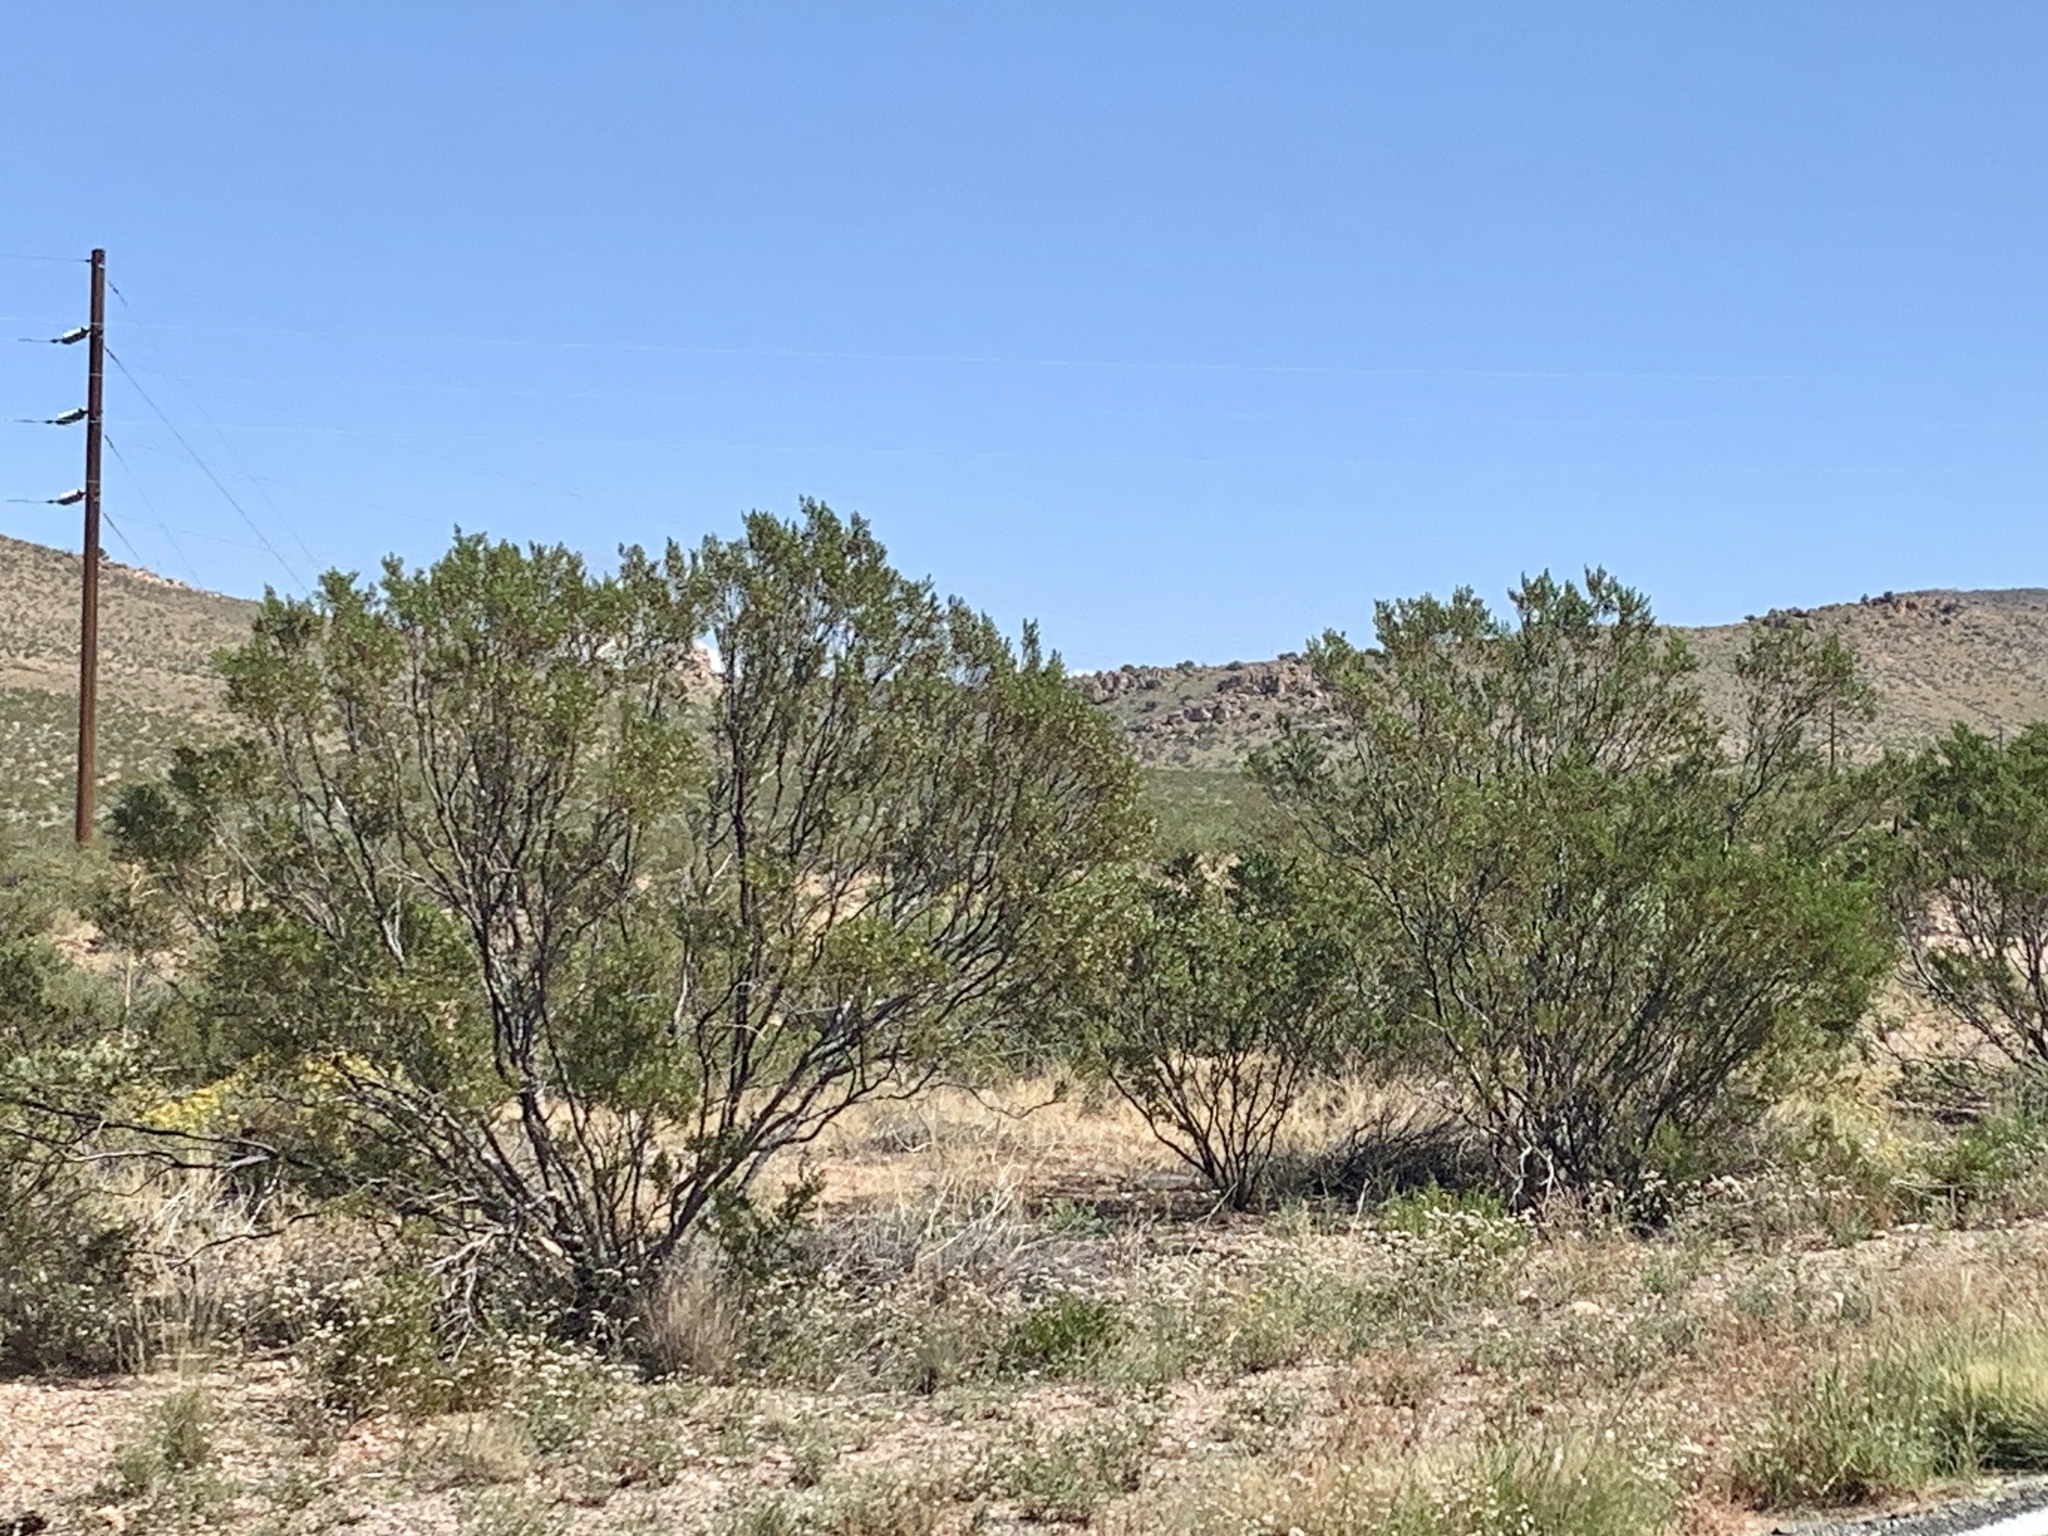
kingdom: Plantae
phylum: Tracheophyta
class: Magnoliopsida
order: Zygophyllales
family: Zygophyllaceae
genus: Larrea
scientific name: Larrea tridentata
